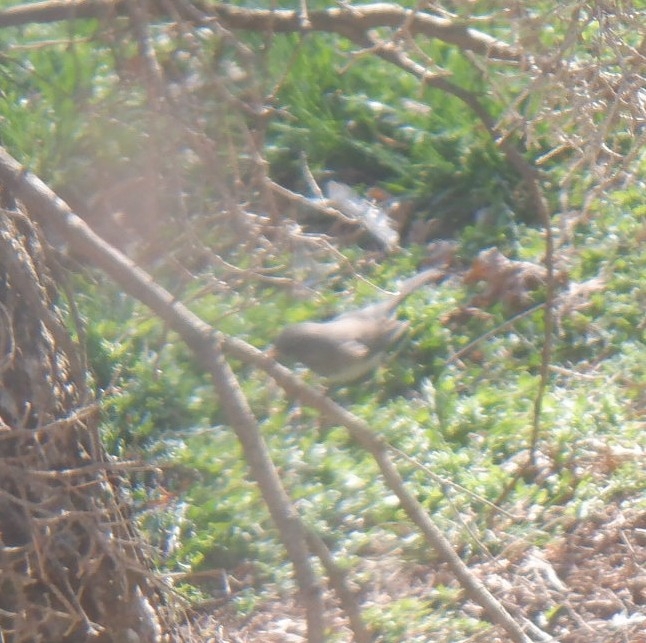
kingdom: Animalia
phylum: Chordata
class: Aves
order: Passeriformes
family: Passerellidae
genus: Junco
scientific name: Junco hyemalis
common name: Dark-eyed junco
